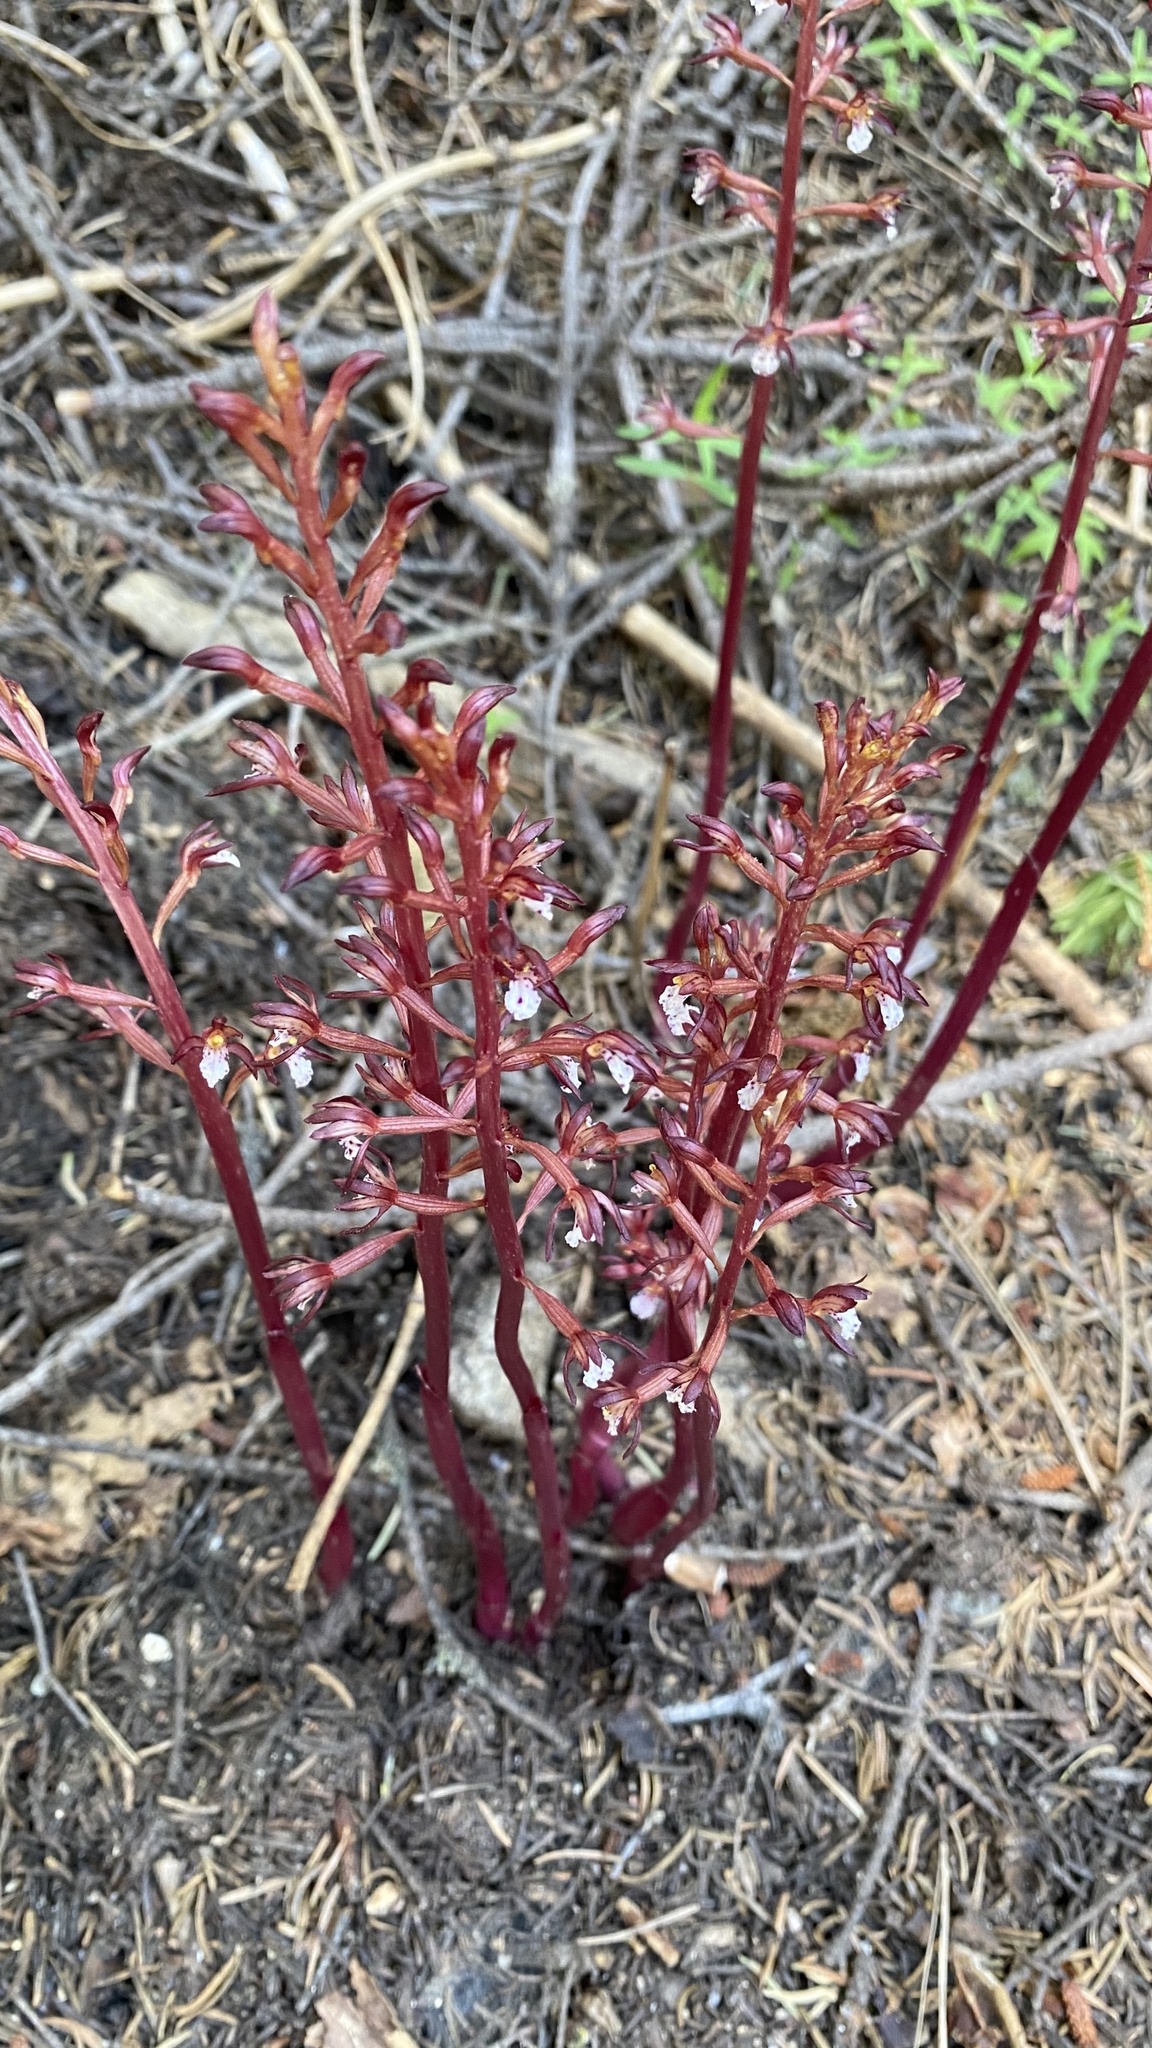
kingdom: Plantae
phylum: Tracheophyta
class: Liliopsida
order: Asparagales
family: Orchidaceae
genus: Corallorhiza
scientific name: Corallorhiza maculata
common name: Spotted coralroot
